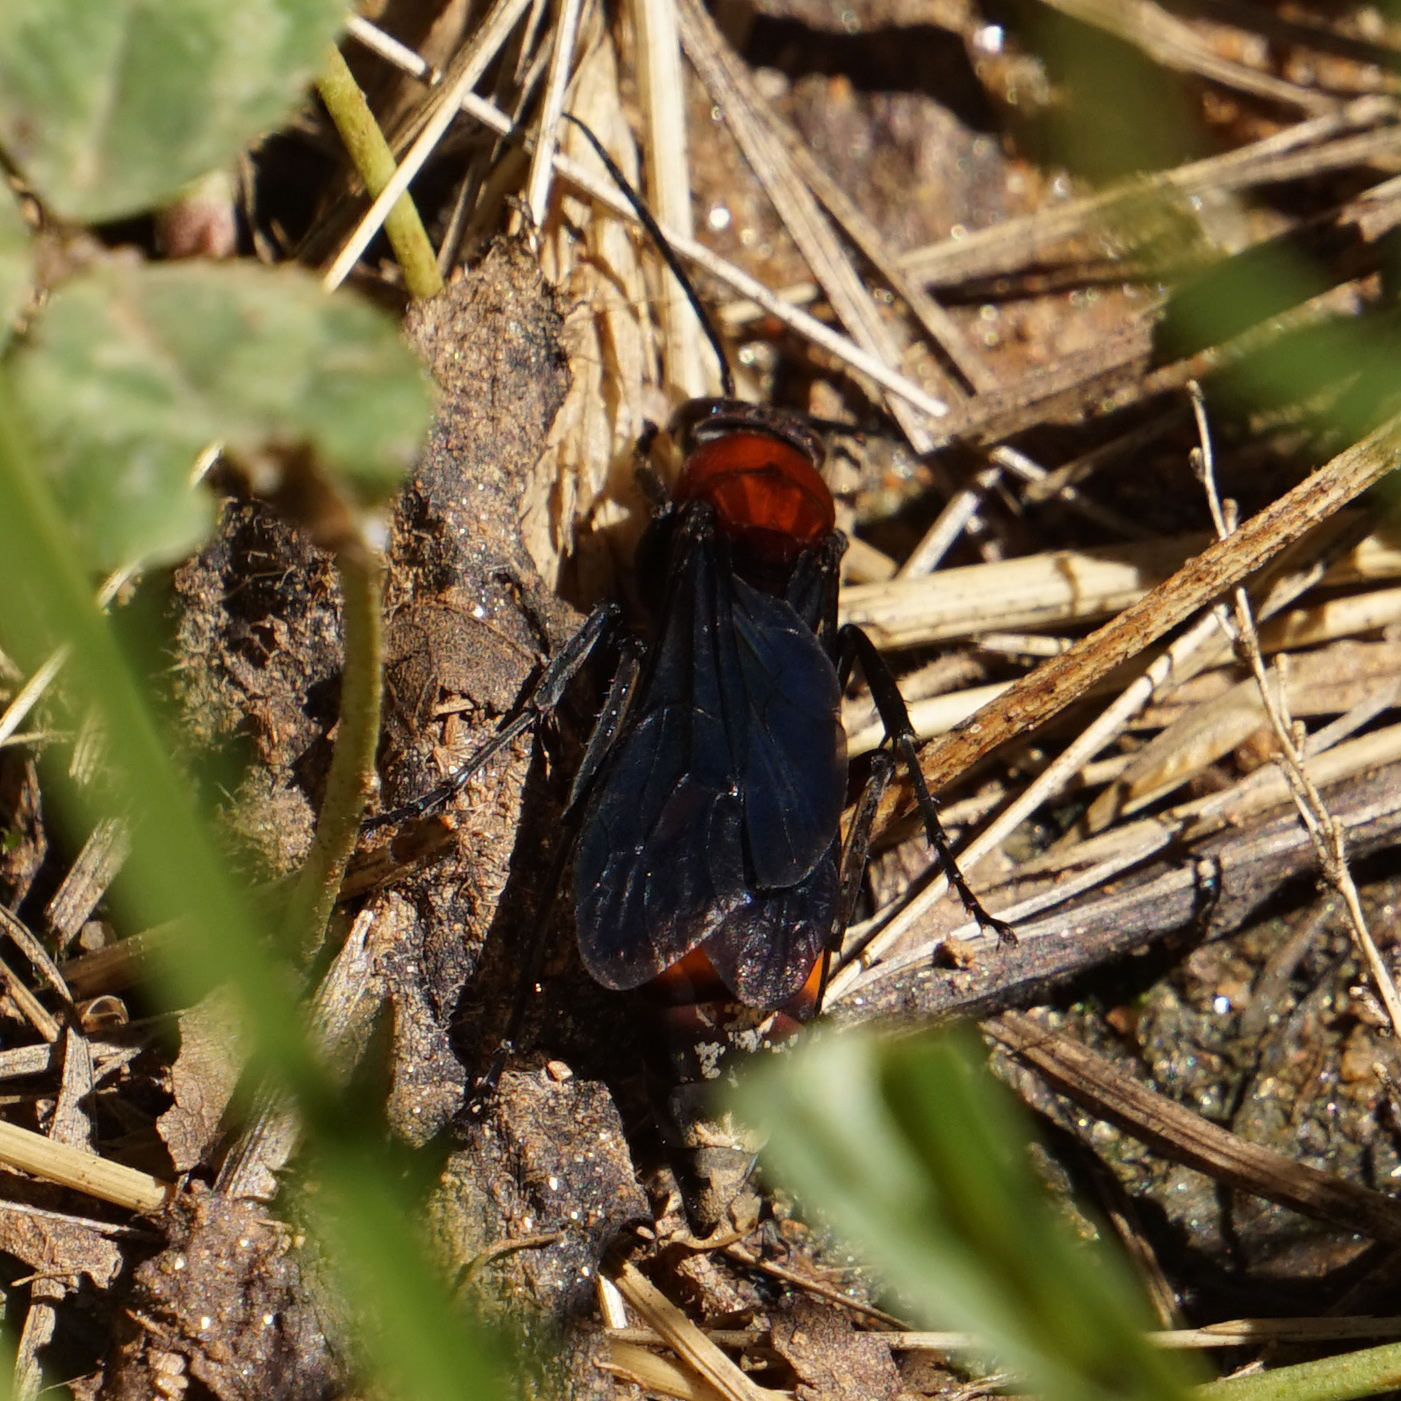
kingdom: Animalia
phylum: Arthropoda
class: Insecta
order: Hymenoptera
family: Pompilidae
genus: Psorthaspis
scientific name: Psorthaspis sanguinea
